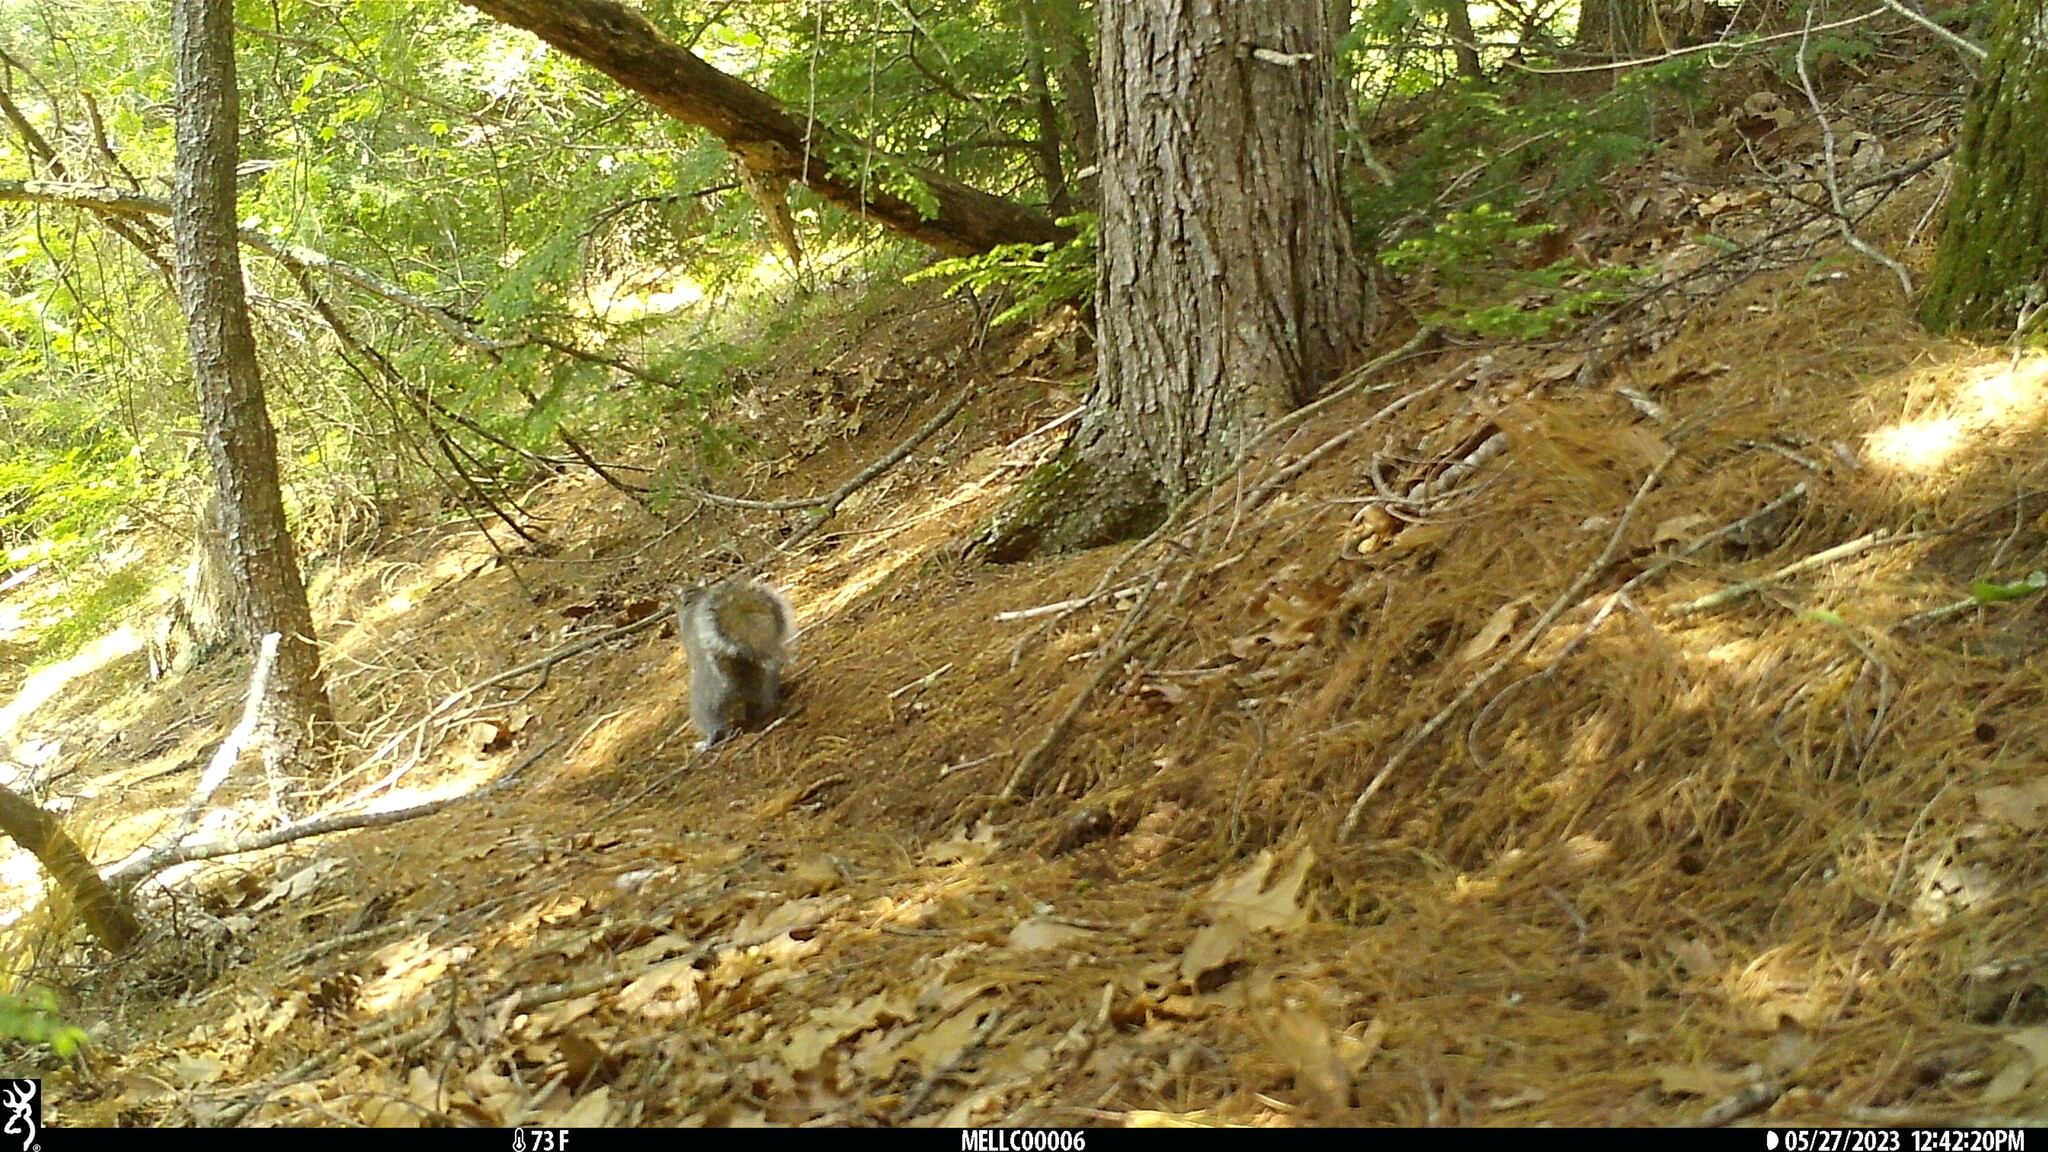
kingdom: Animalia
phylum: Chordata
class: Mammalia
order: Rodentia
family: Sciuridae
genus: Sciurus
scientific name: Sciurus carolinensis
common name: Eastern gray squirrel
